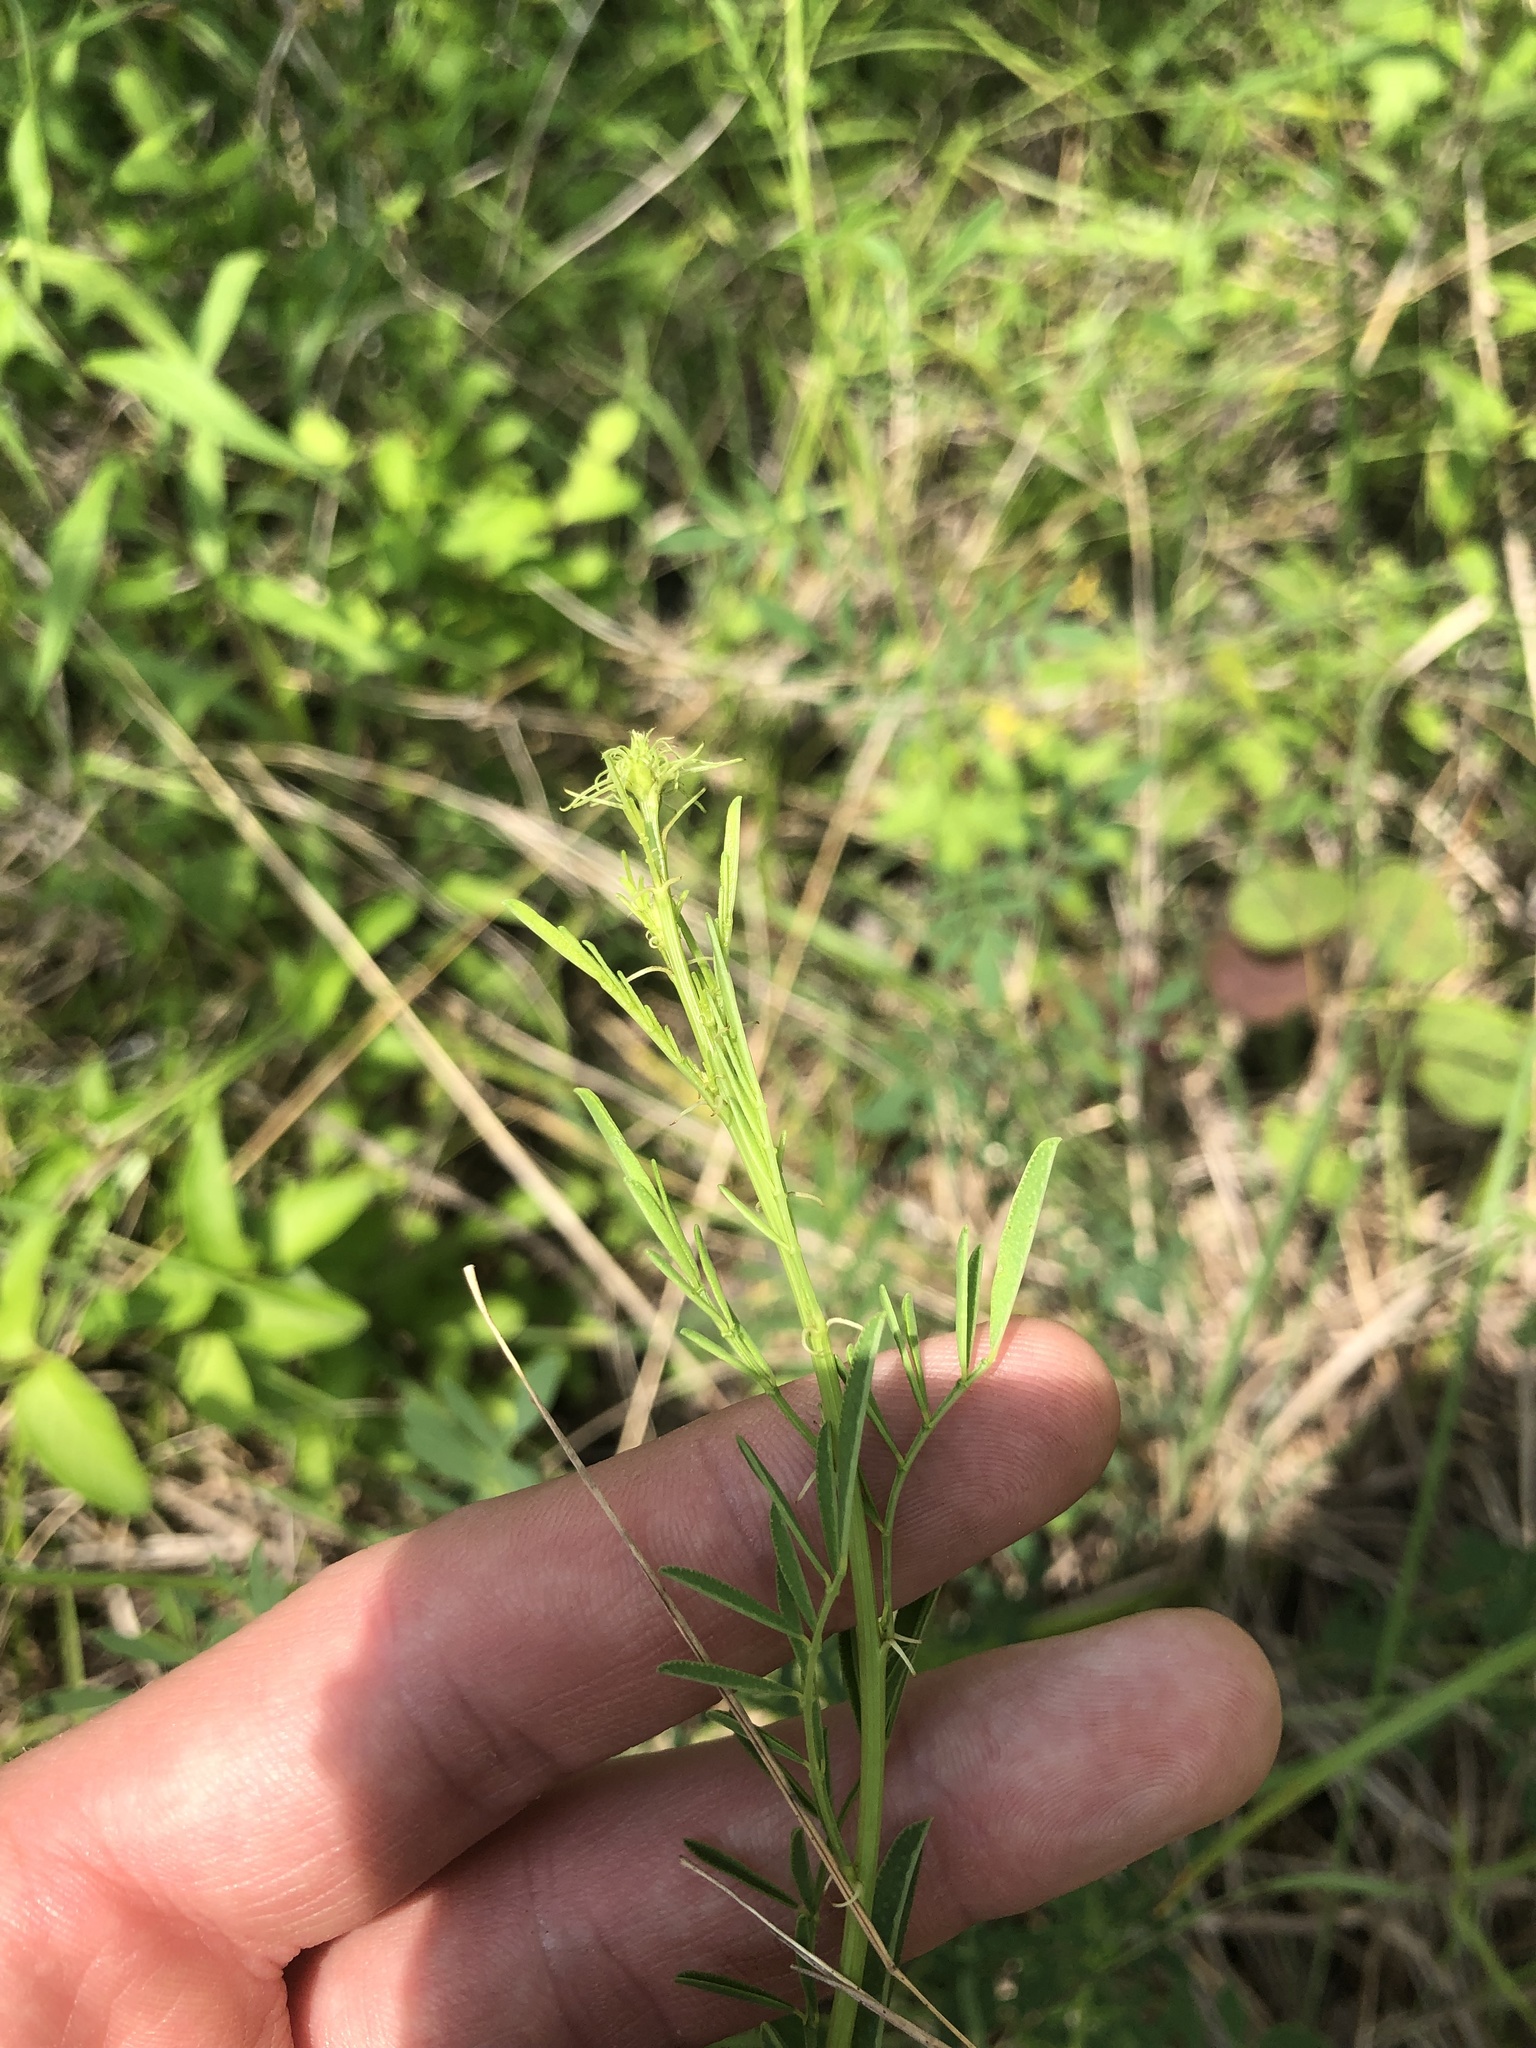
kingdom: Plantae
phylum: Tracheophyta
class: Magnoliopsida
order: Fabales
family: Fabaceae
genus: Dalea
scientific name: Dalea candida
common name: White prairie-clover
